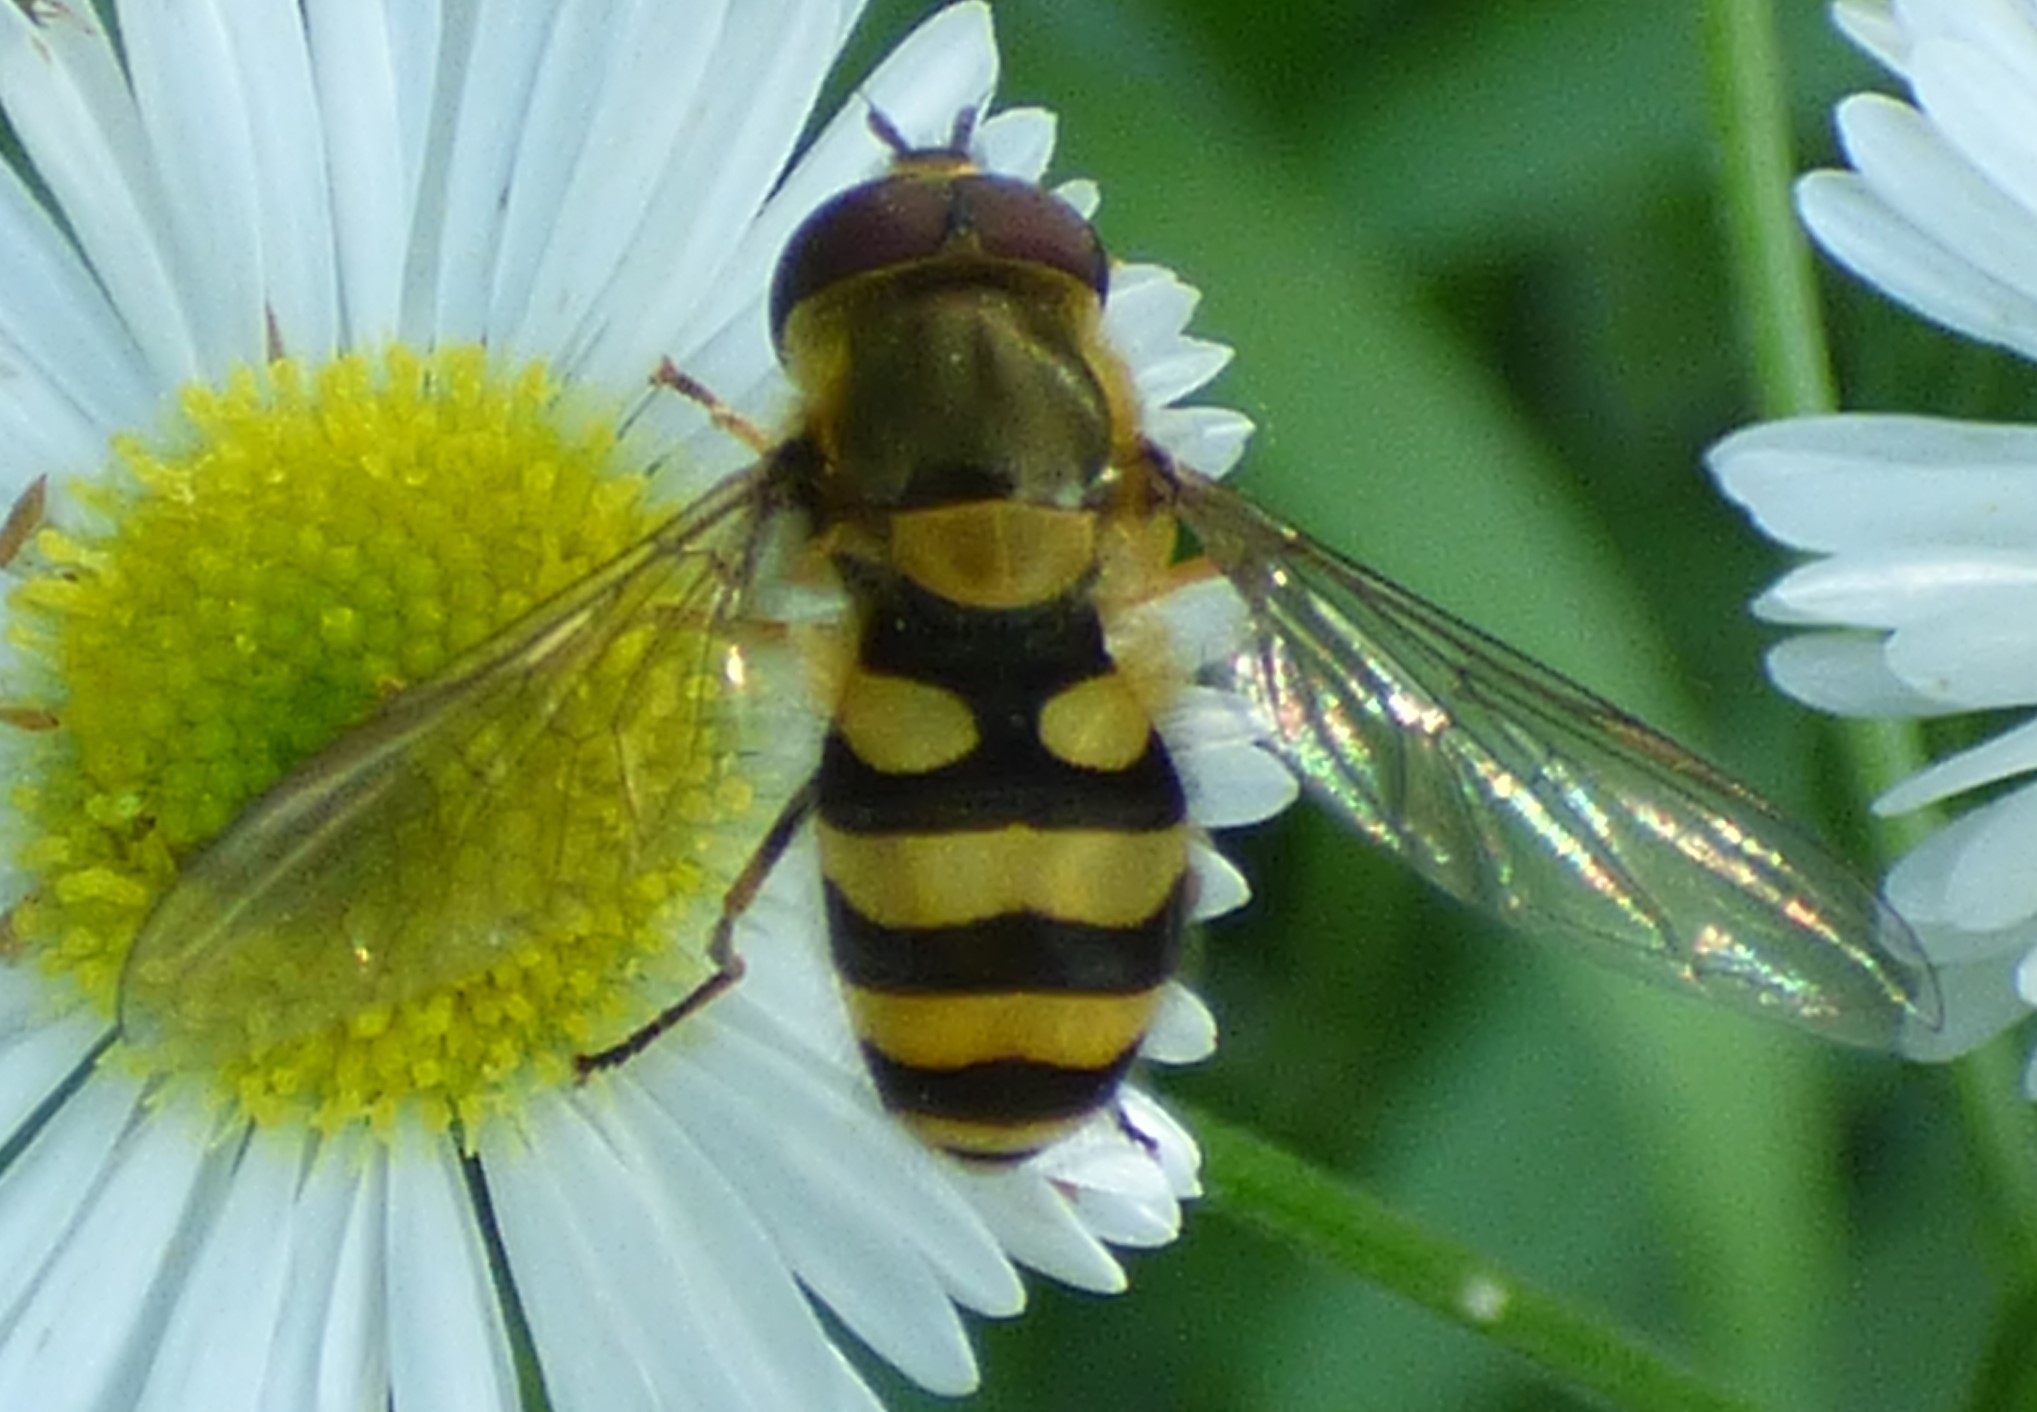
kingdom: Animalia
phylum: Arthropoda
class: Insecta
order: Diptera
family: Syrphidae
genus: Syrphus
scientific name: Syrphus
